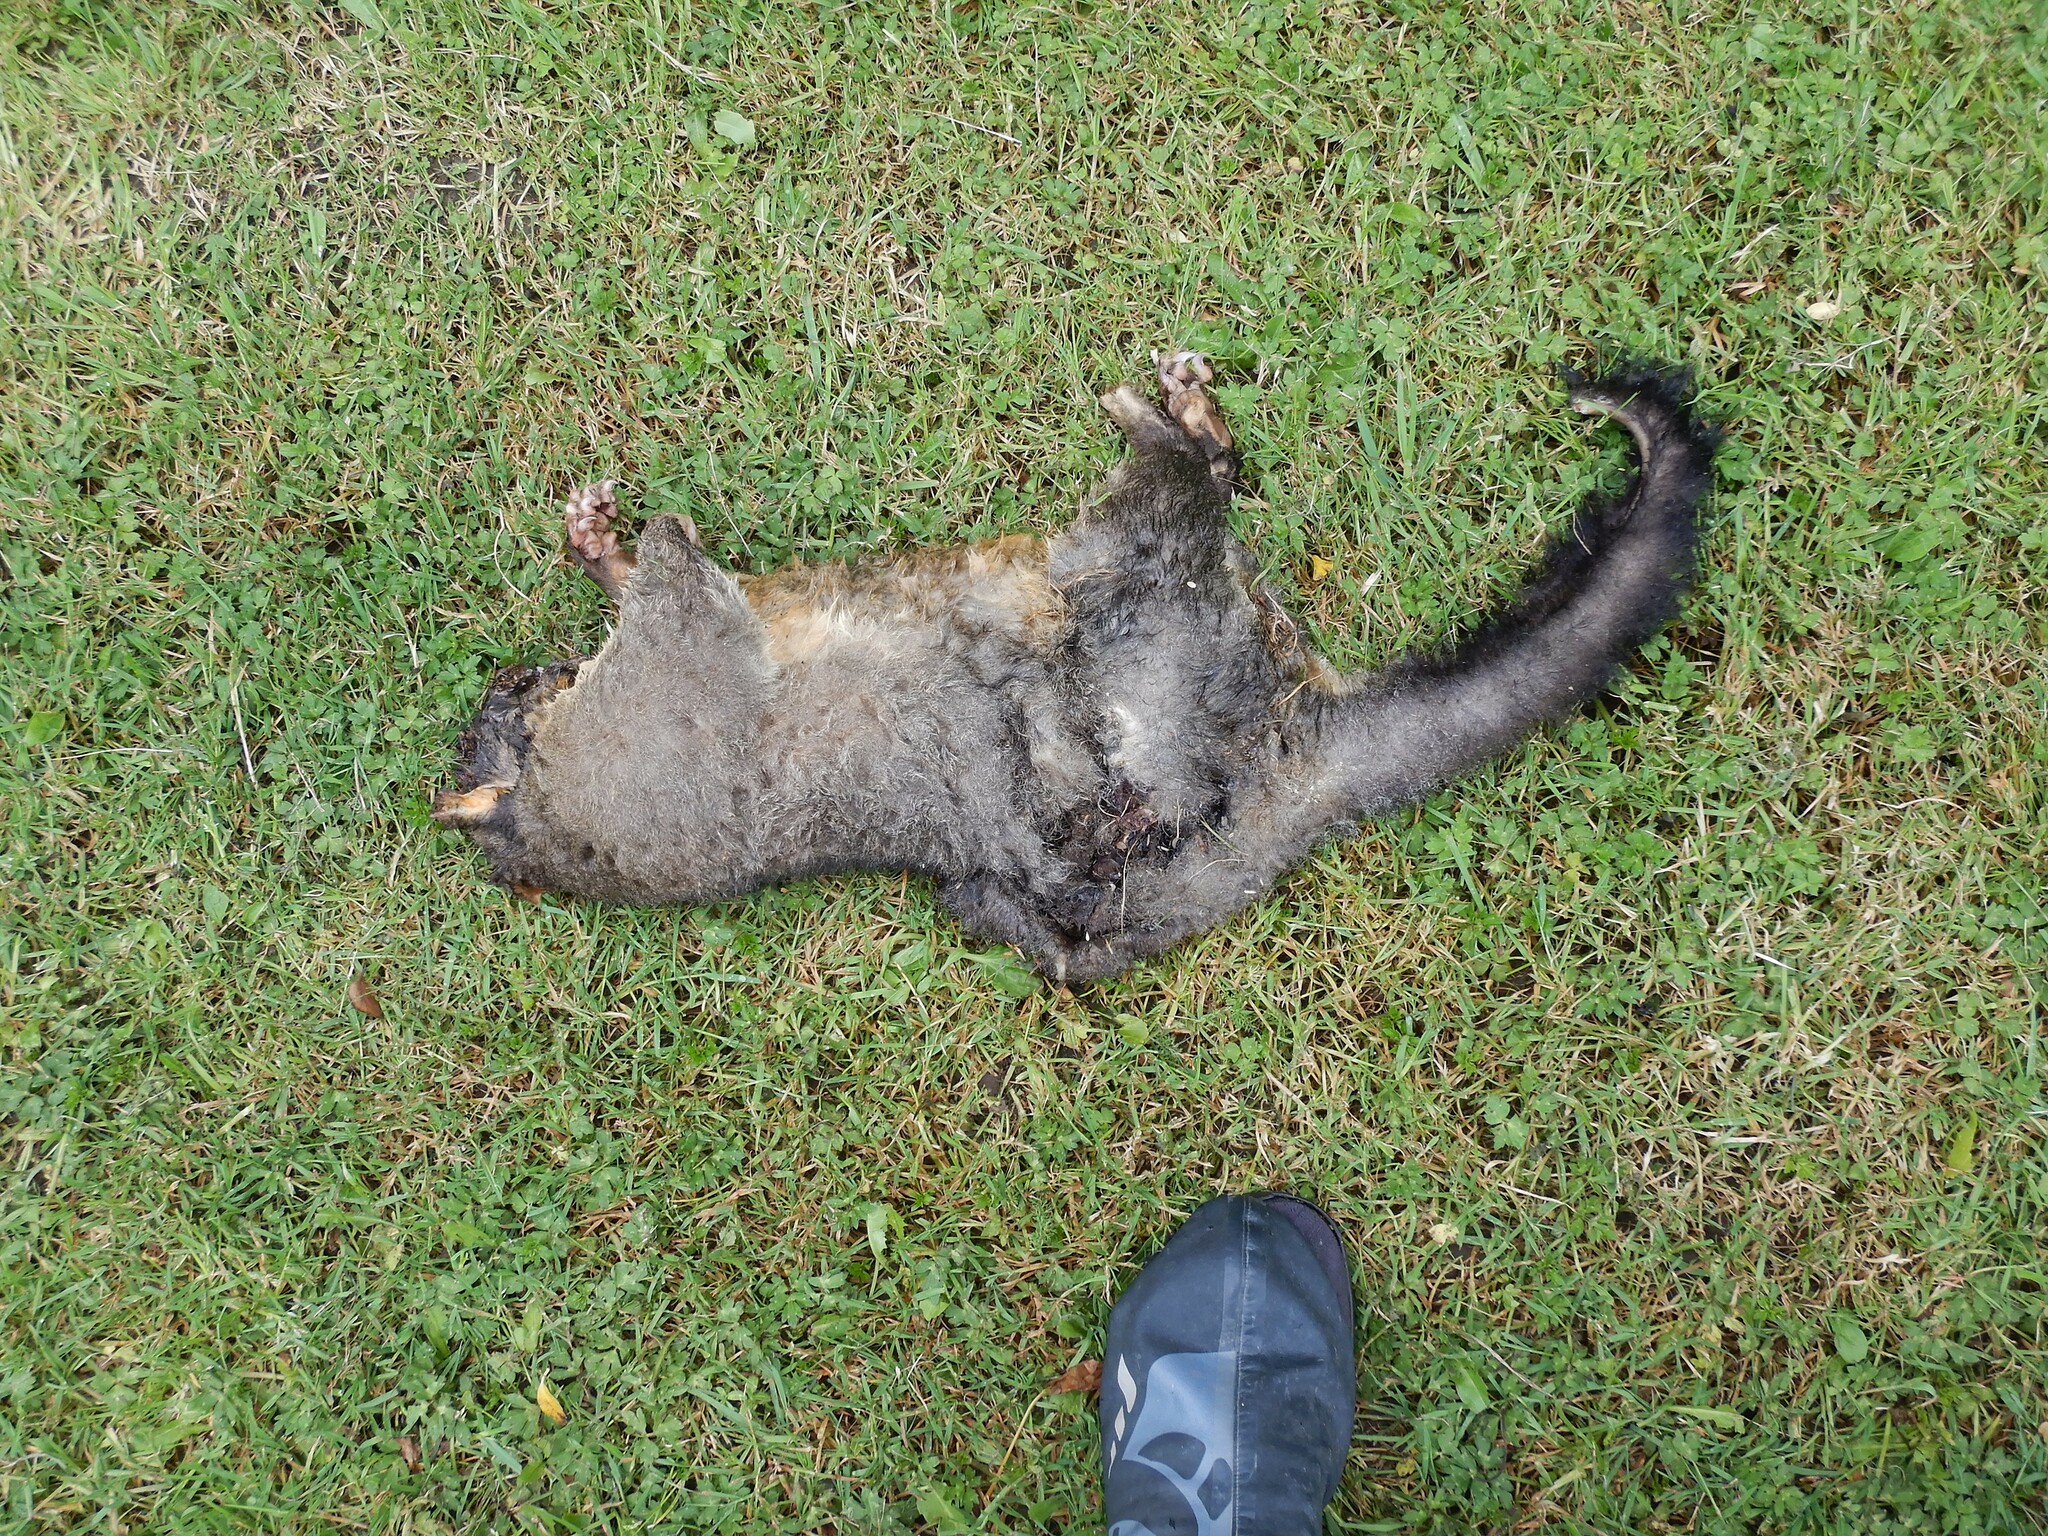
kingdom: Animalia
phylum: Chordata
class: Mammalia
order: Diprotodontia
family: Phalangeridae
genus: Trichosurus
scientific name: Trichosurus vulpecula
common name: Common brushtail
